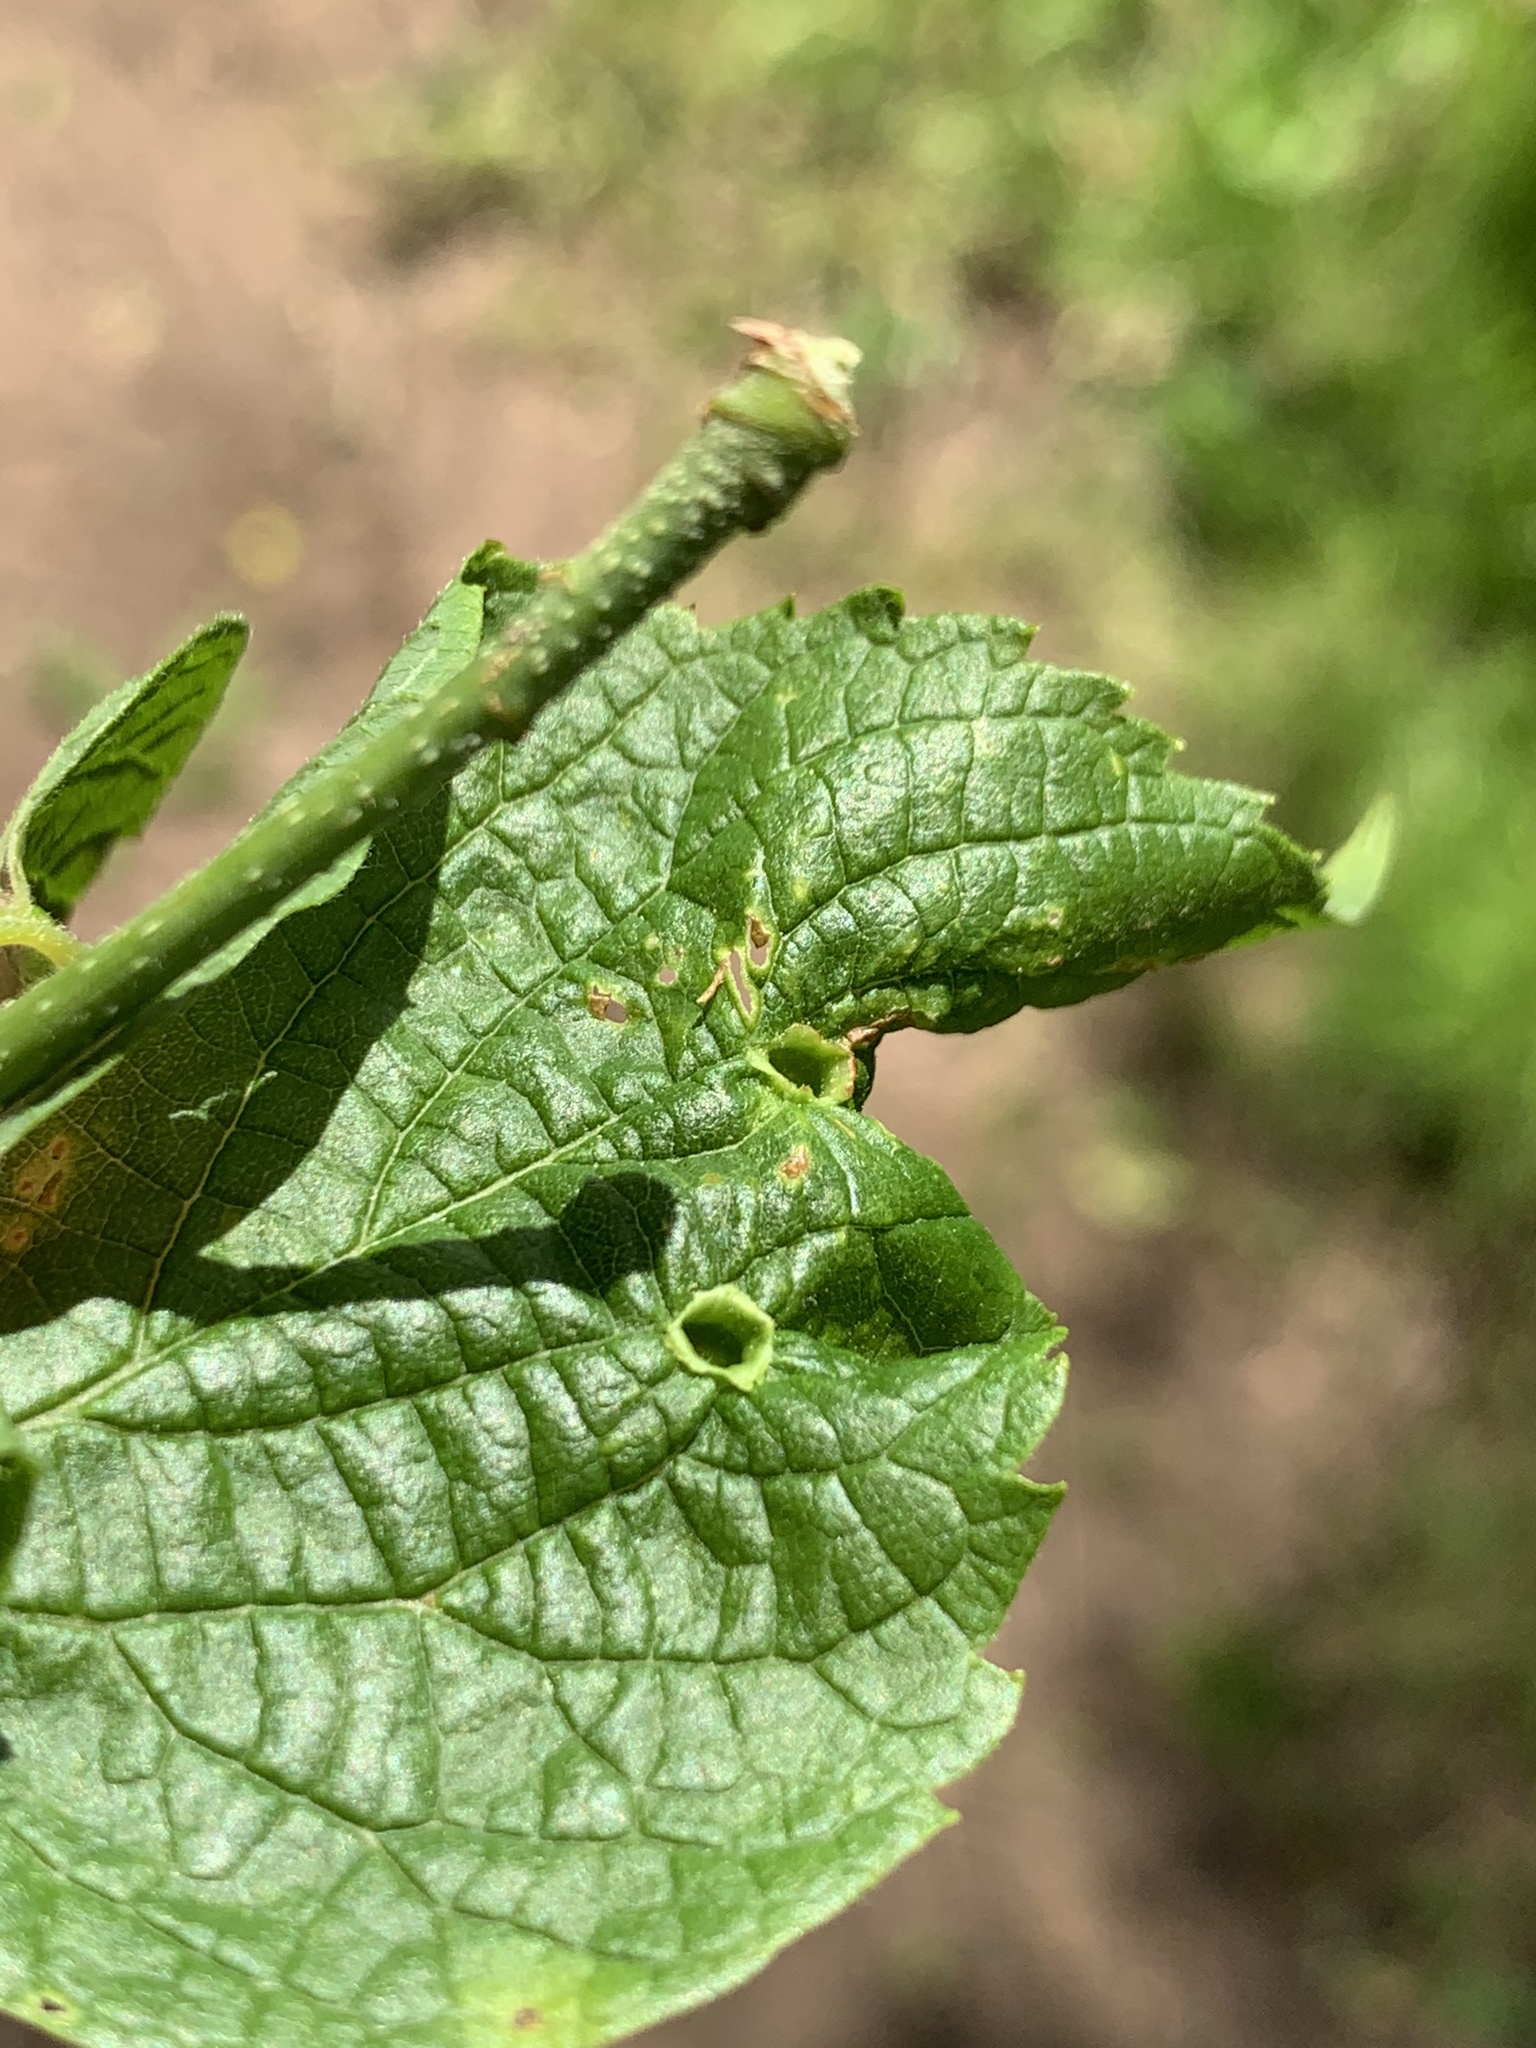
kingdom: Animalia
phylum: Arthropoda
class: Insecta
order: Hemiptera
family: Aphalaridae
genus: Pachypsylla
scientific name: Pachypsylla celtidismamma
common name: Hackberry nipplegall psyllid
